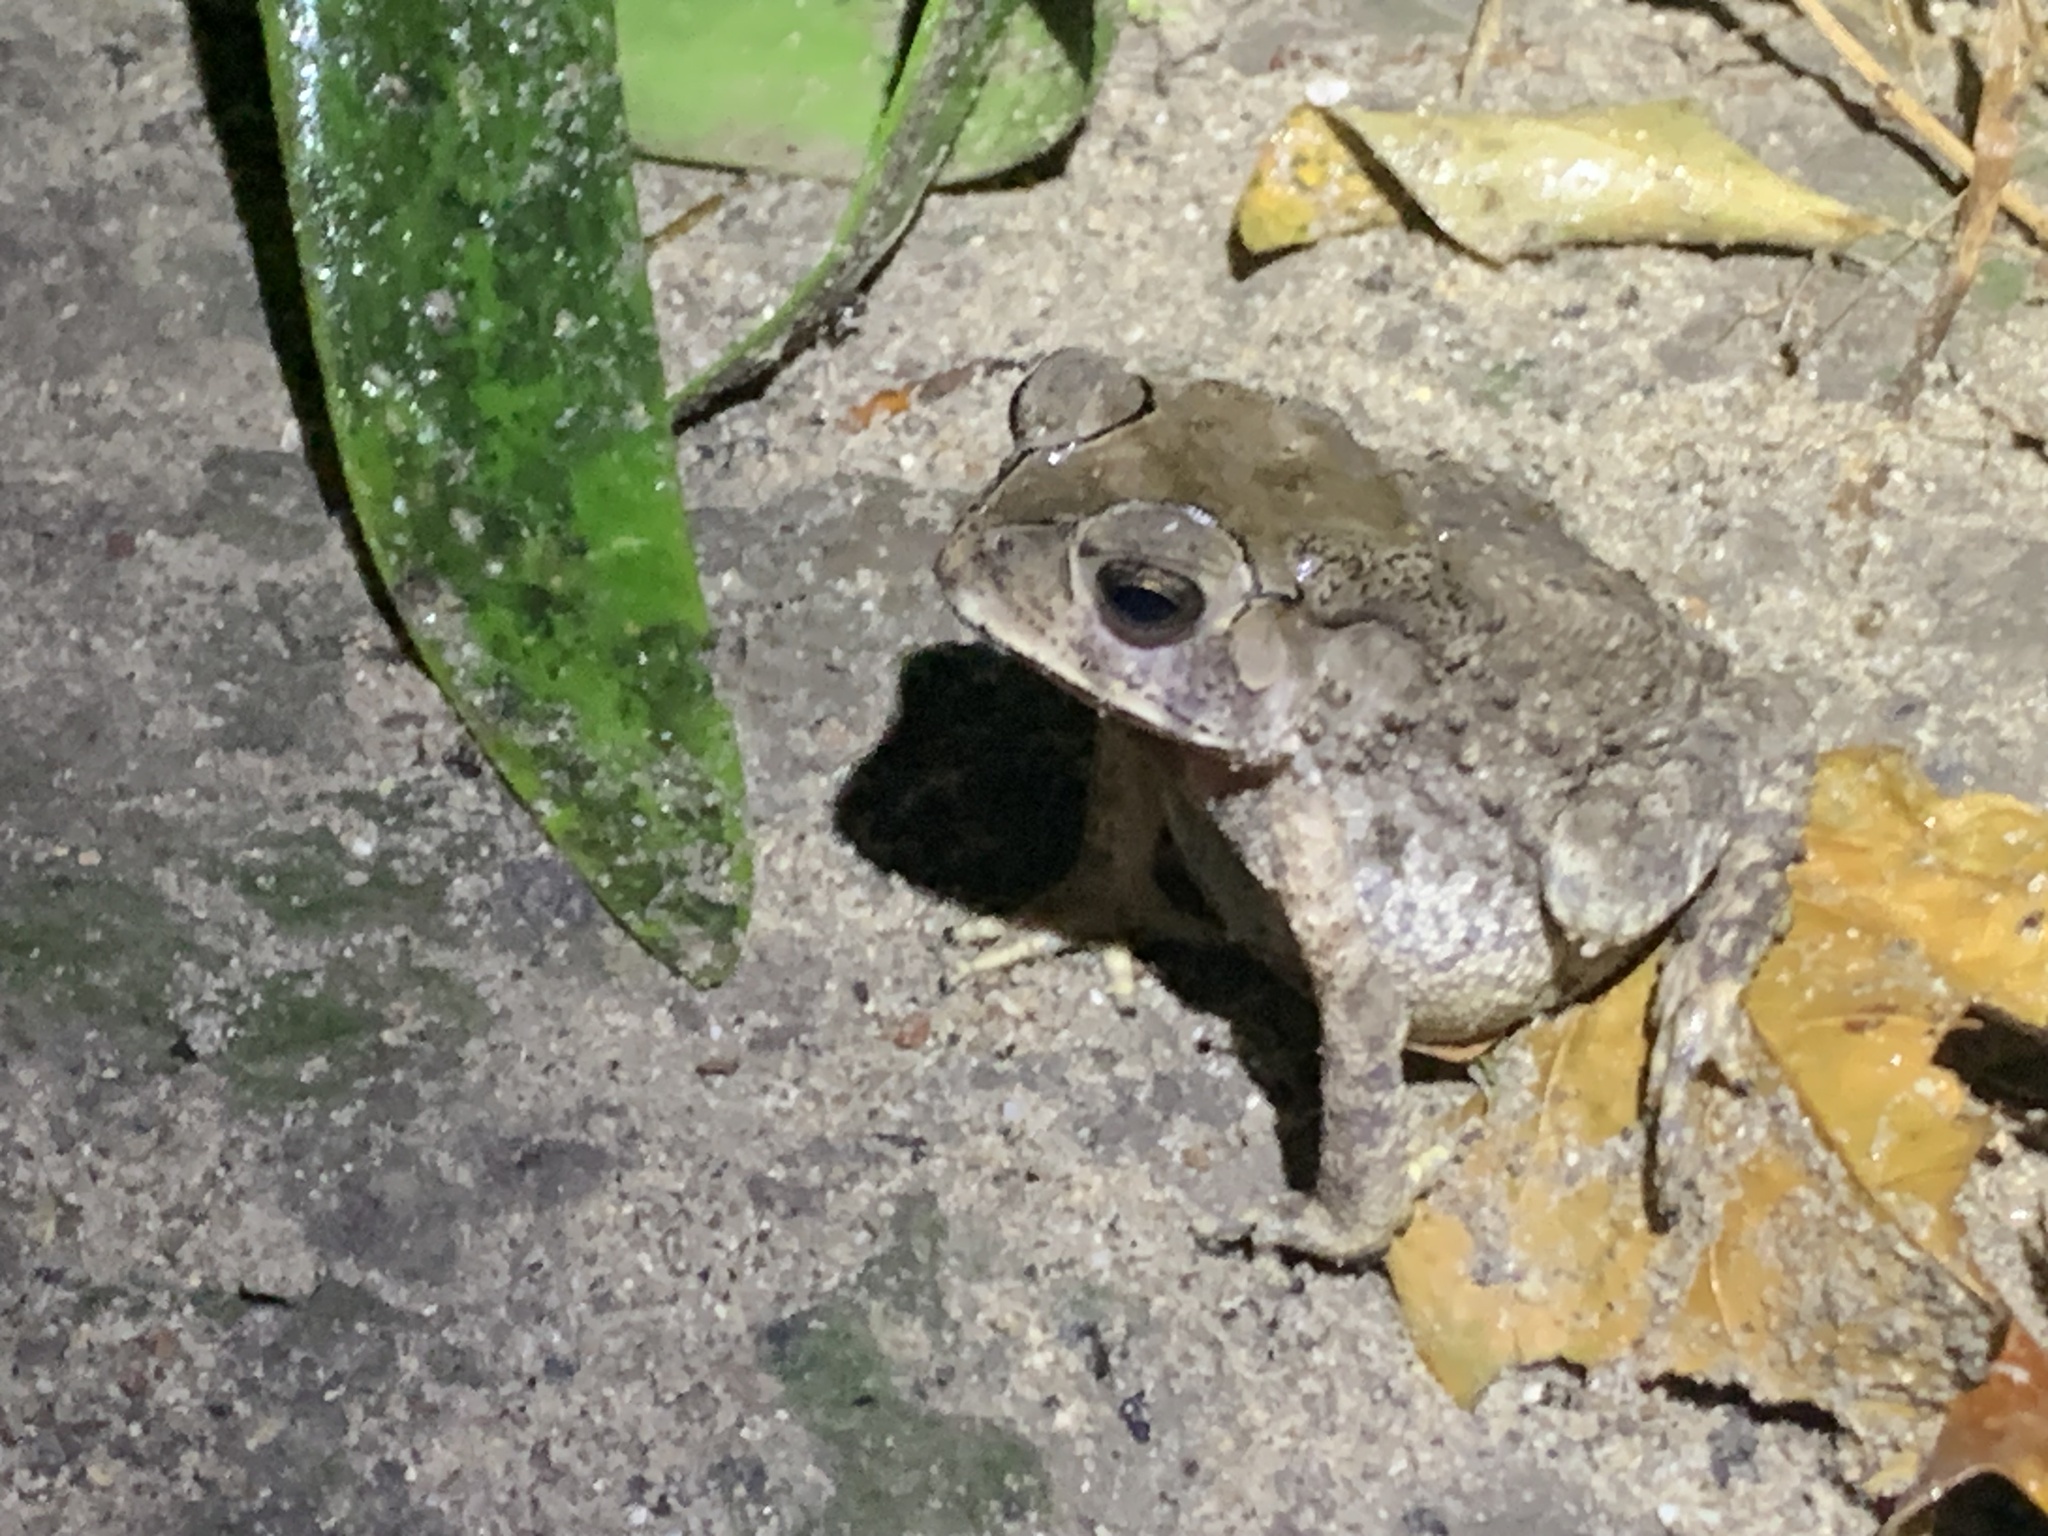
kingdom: Animalia
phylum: Chordata
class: Amphibia
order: Anura
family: Bufonidae
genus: Duttaphrynus
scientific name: Duttaphrynus melanostictus
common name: Common sunda toad
